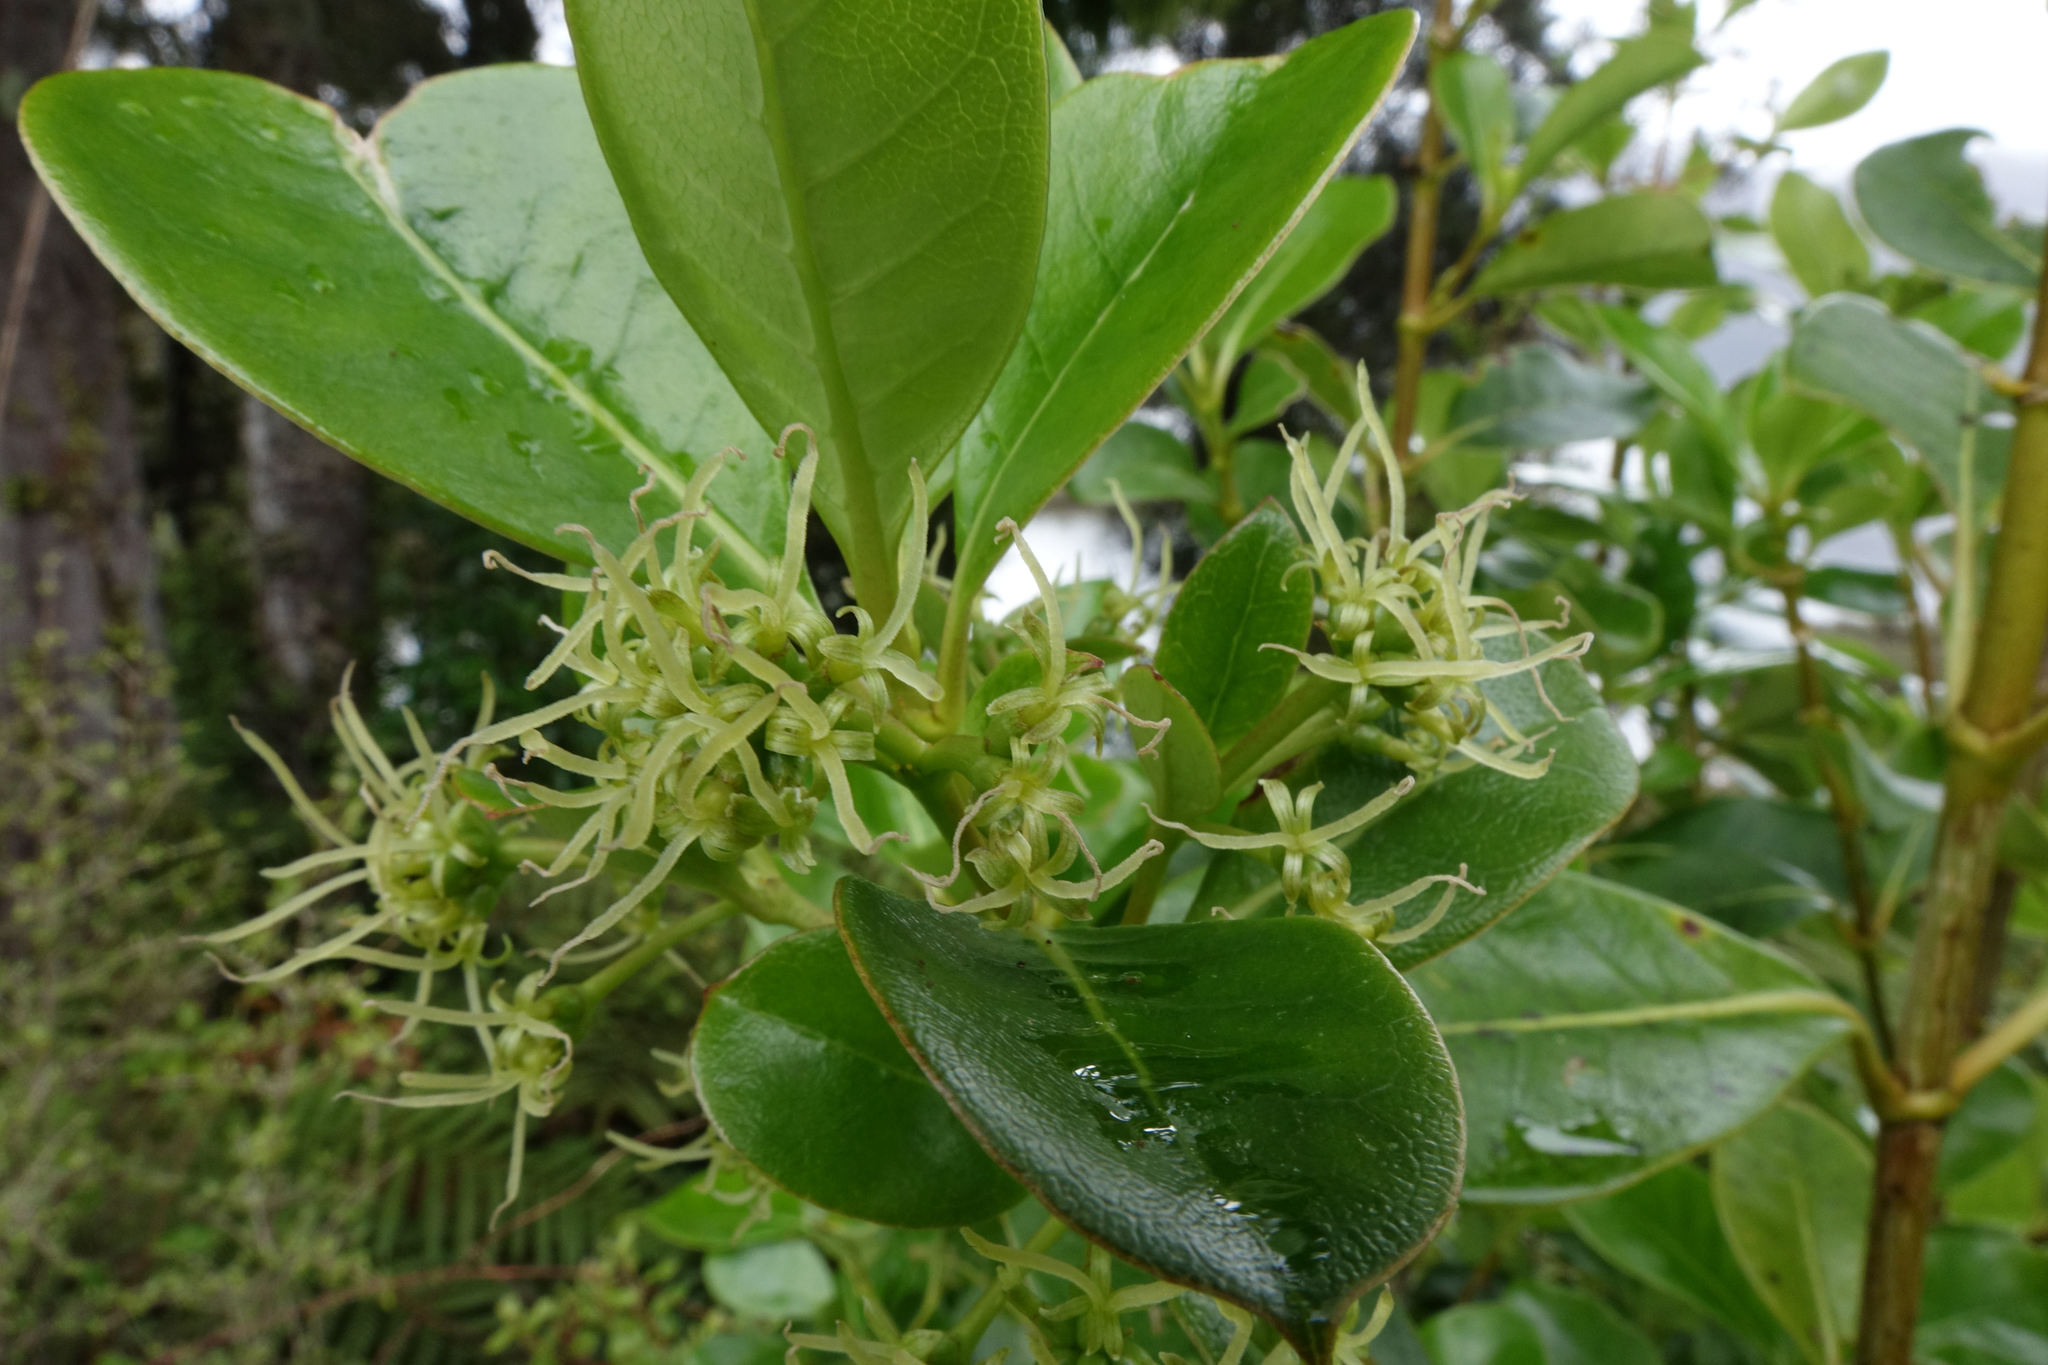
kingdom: Plantae
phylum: Tracheophyta
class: Magnoliopsida
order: Gentianales
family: Rubiaceae
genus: Coprosma
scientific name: Coprosma lucida
